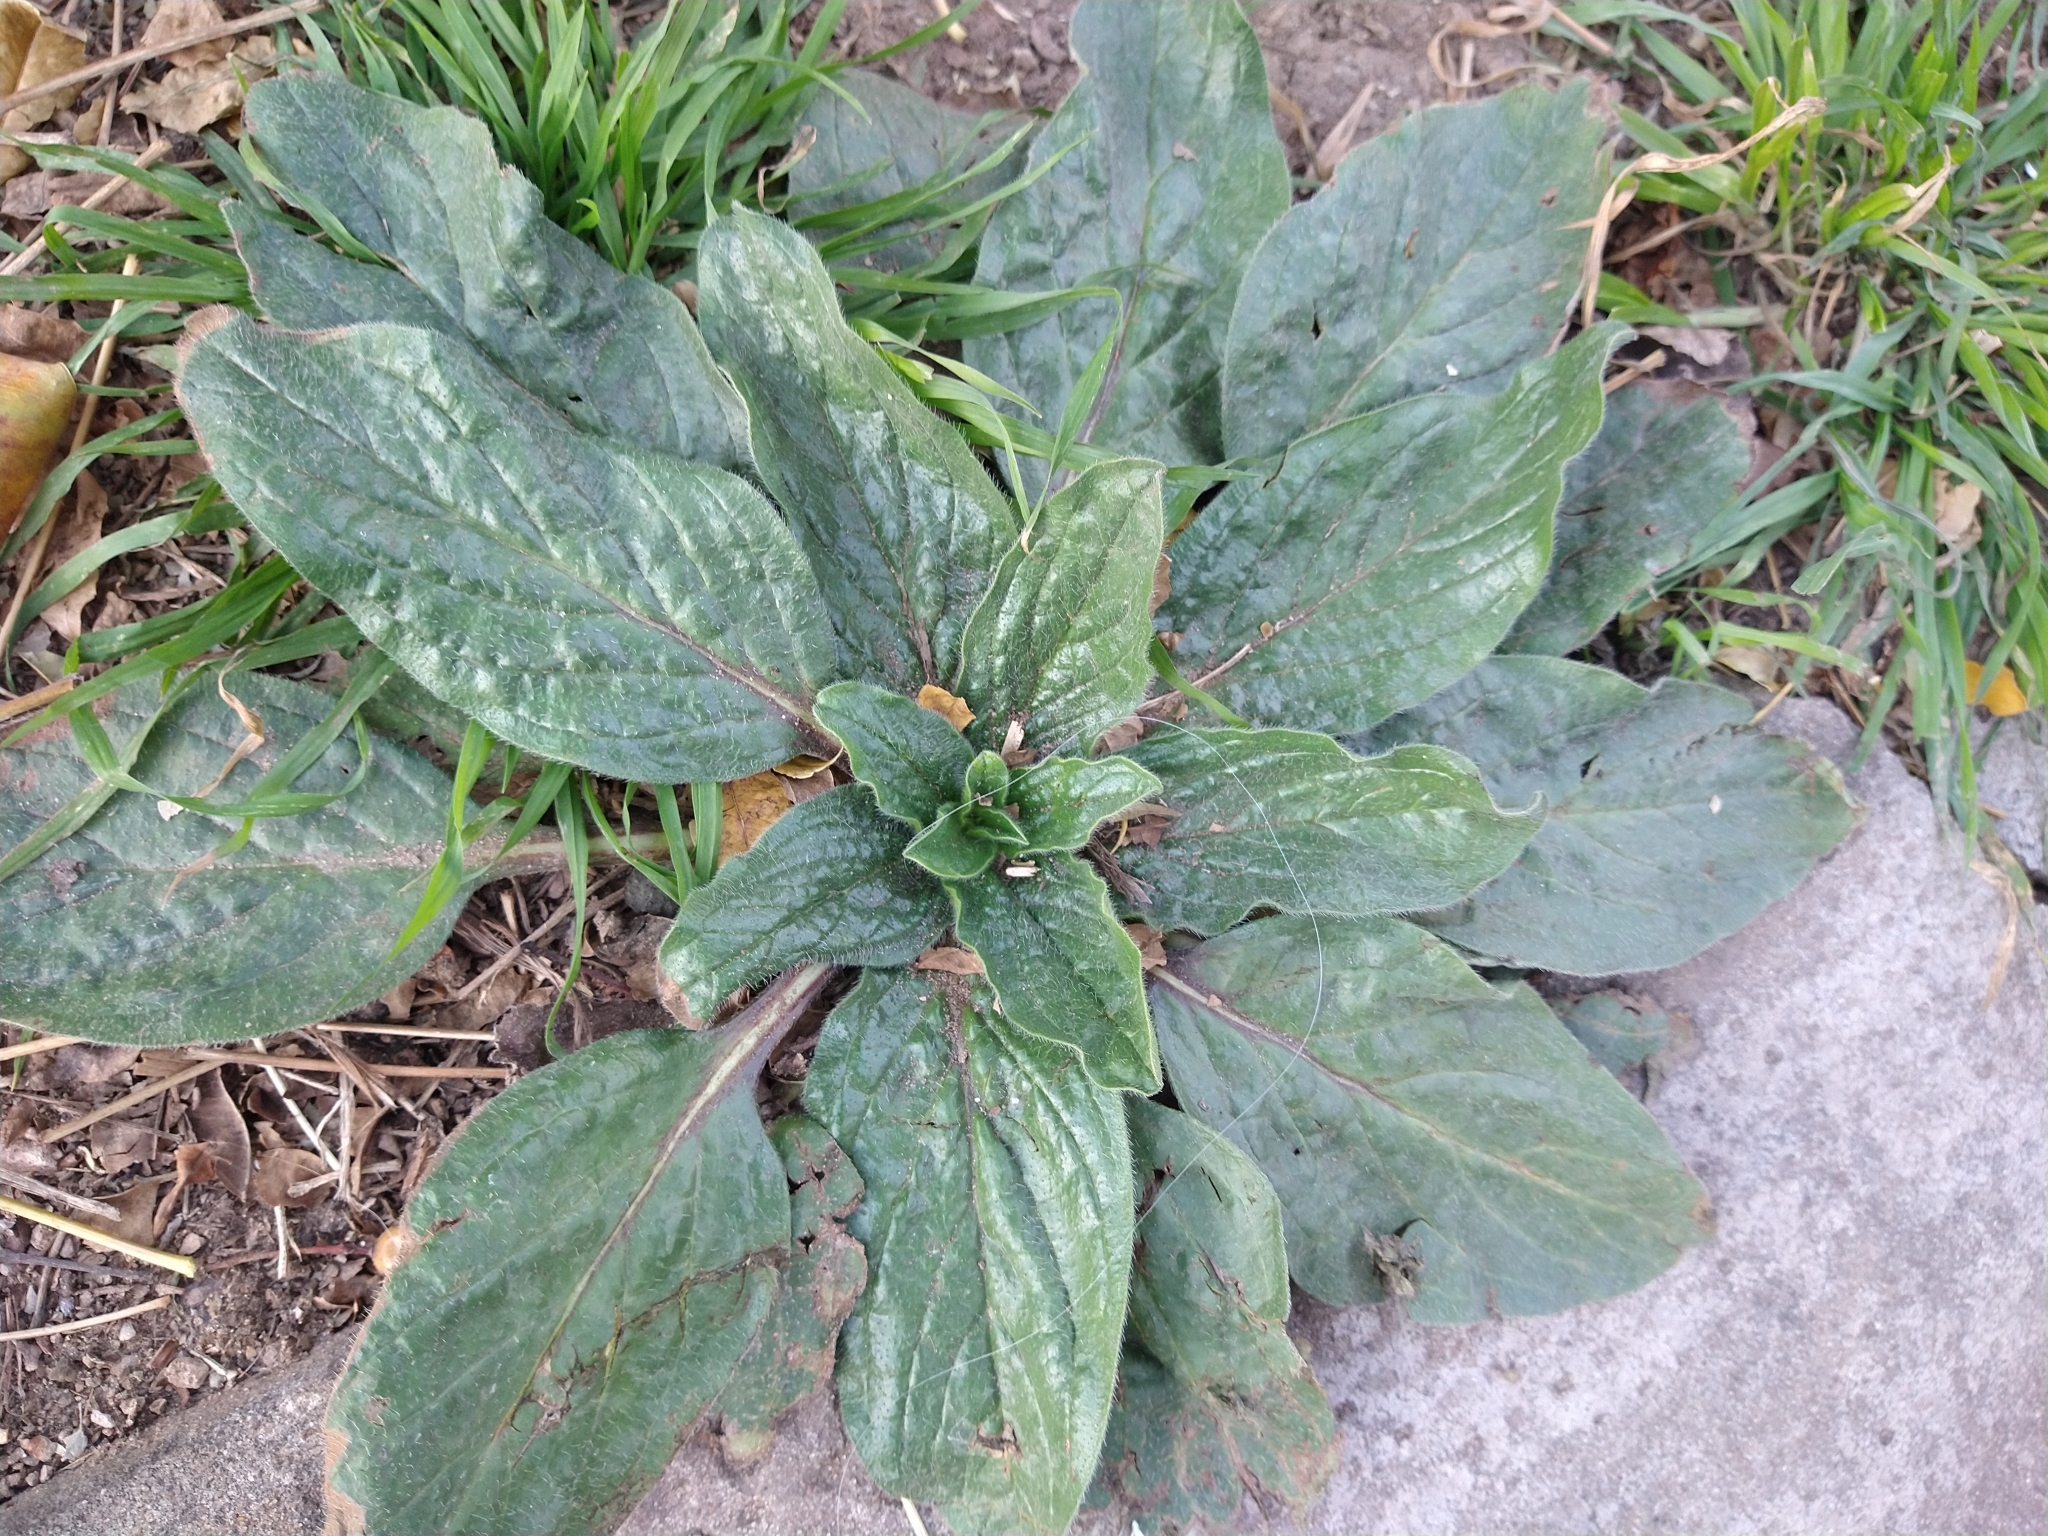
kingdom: Plantae
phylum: Tracheophyta
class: Magnoliopsida
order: Boraginales
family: Boraginaceae
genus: Echium
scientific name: Echium plantagineum
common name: Purple viper's-bugloss
